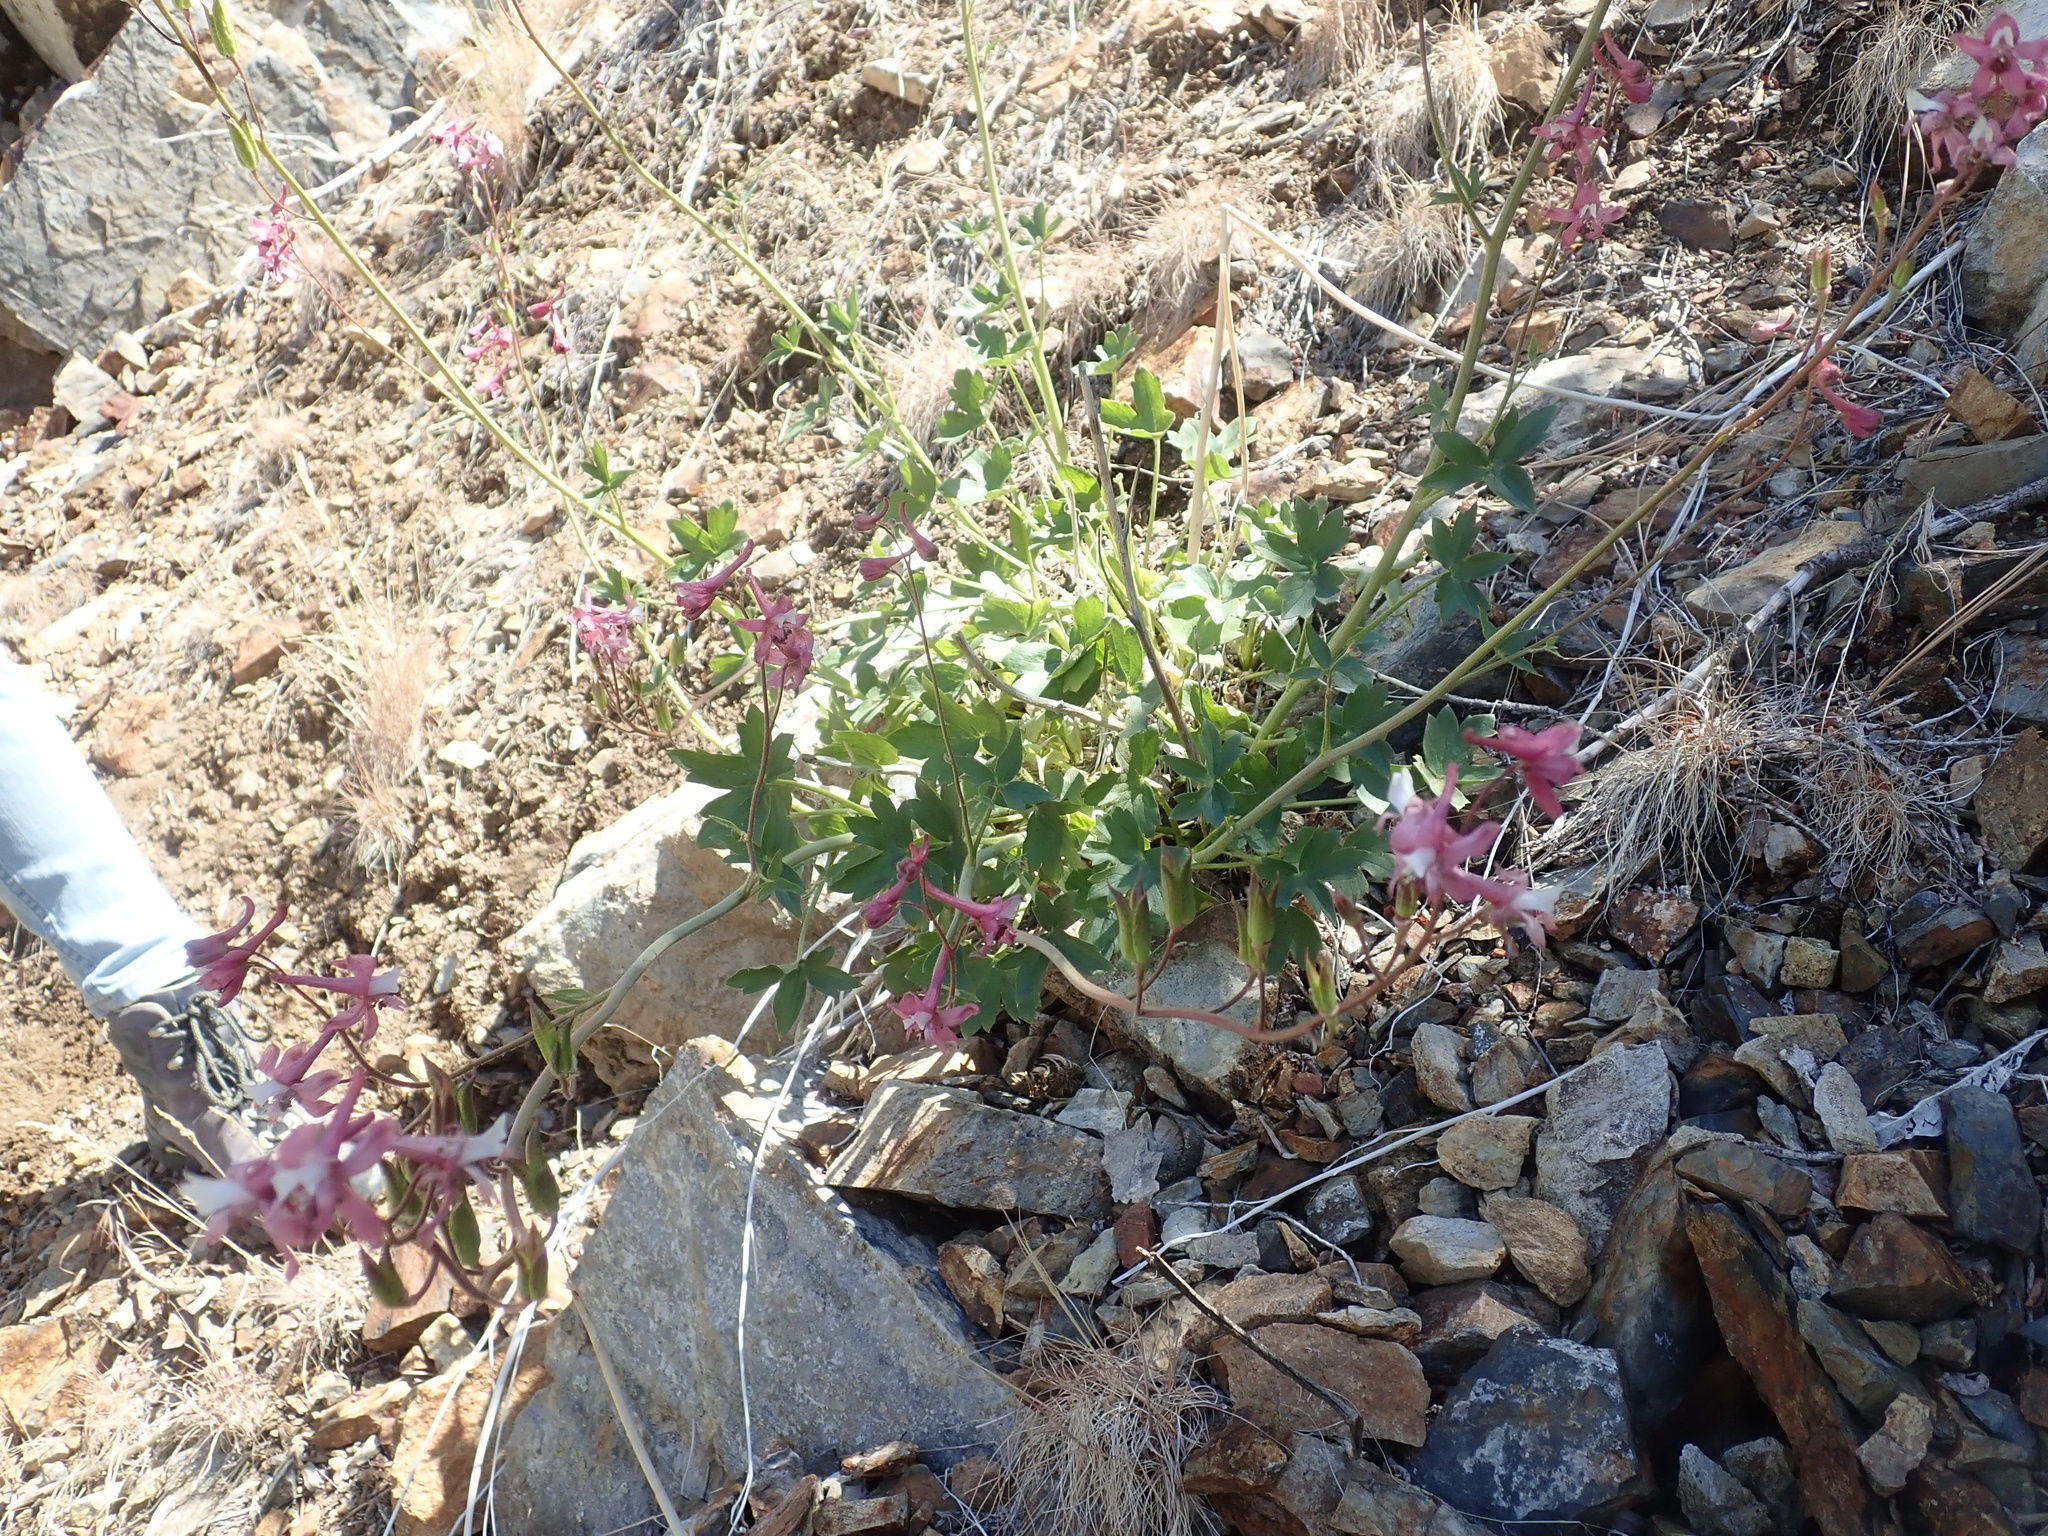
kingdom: Plantae
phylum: Tracheophyta
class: Magnoliopsida
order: Ranunculales
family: Ranunculaceae
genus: Delphinium
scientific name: Delphinium purpusii
